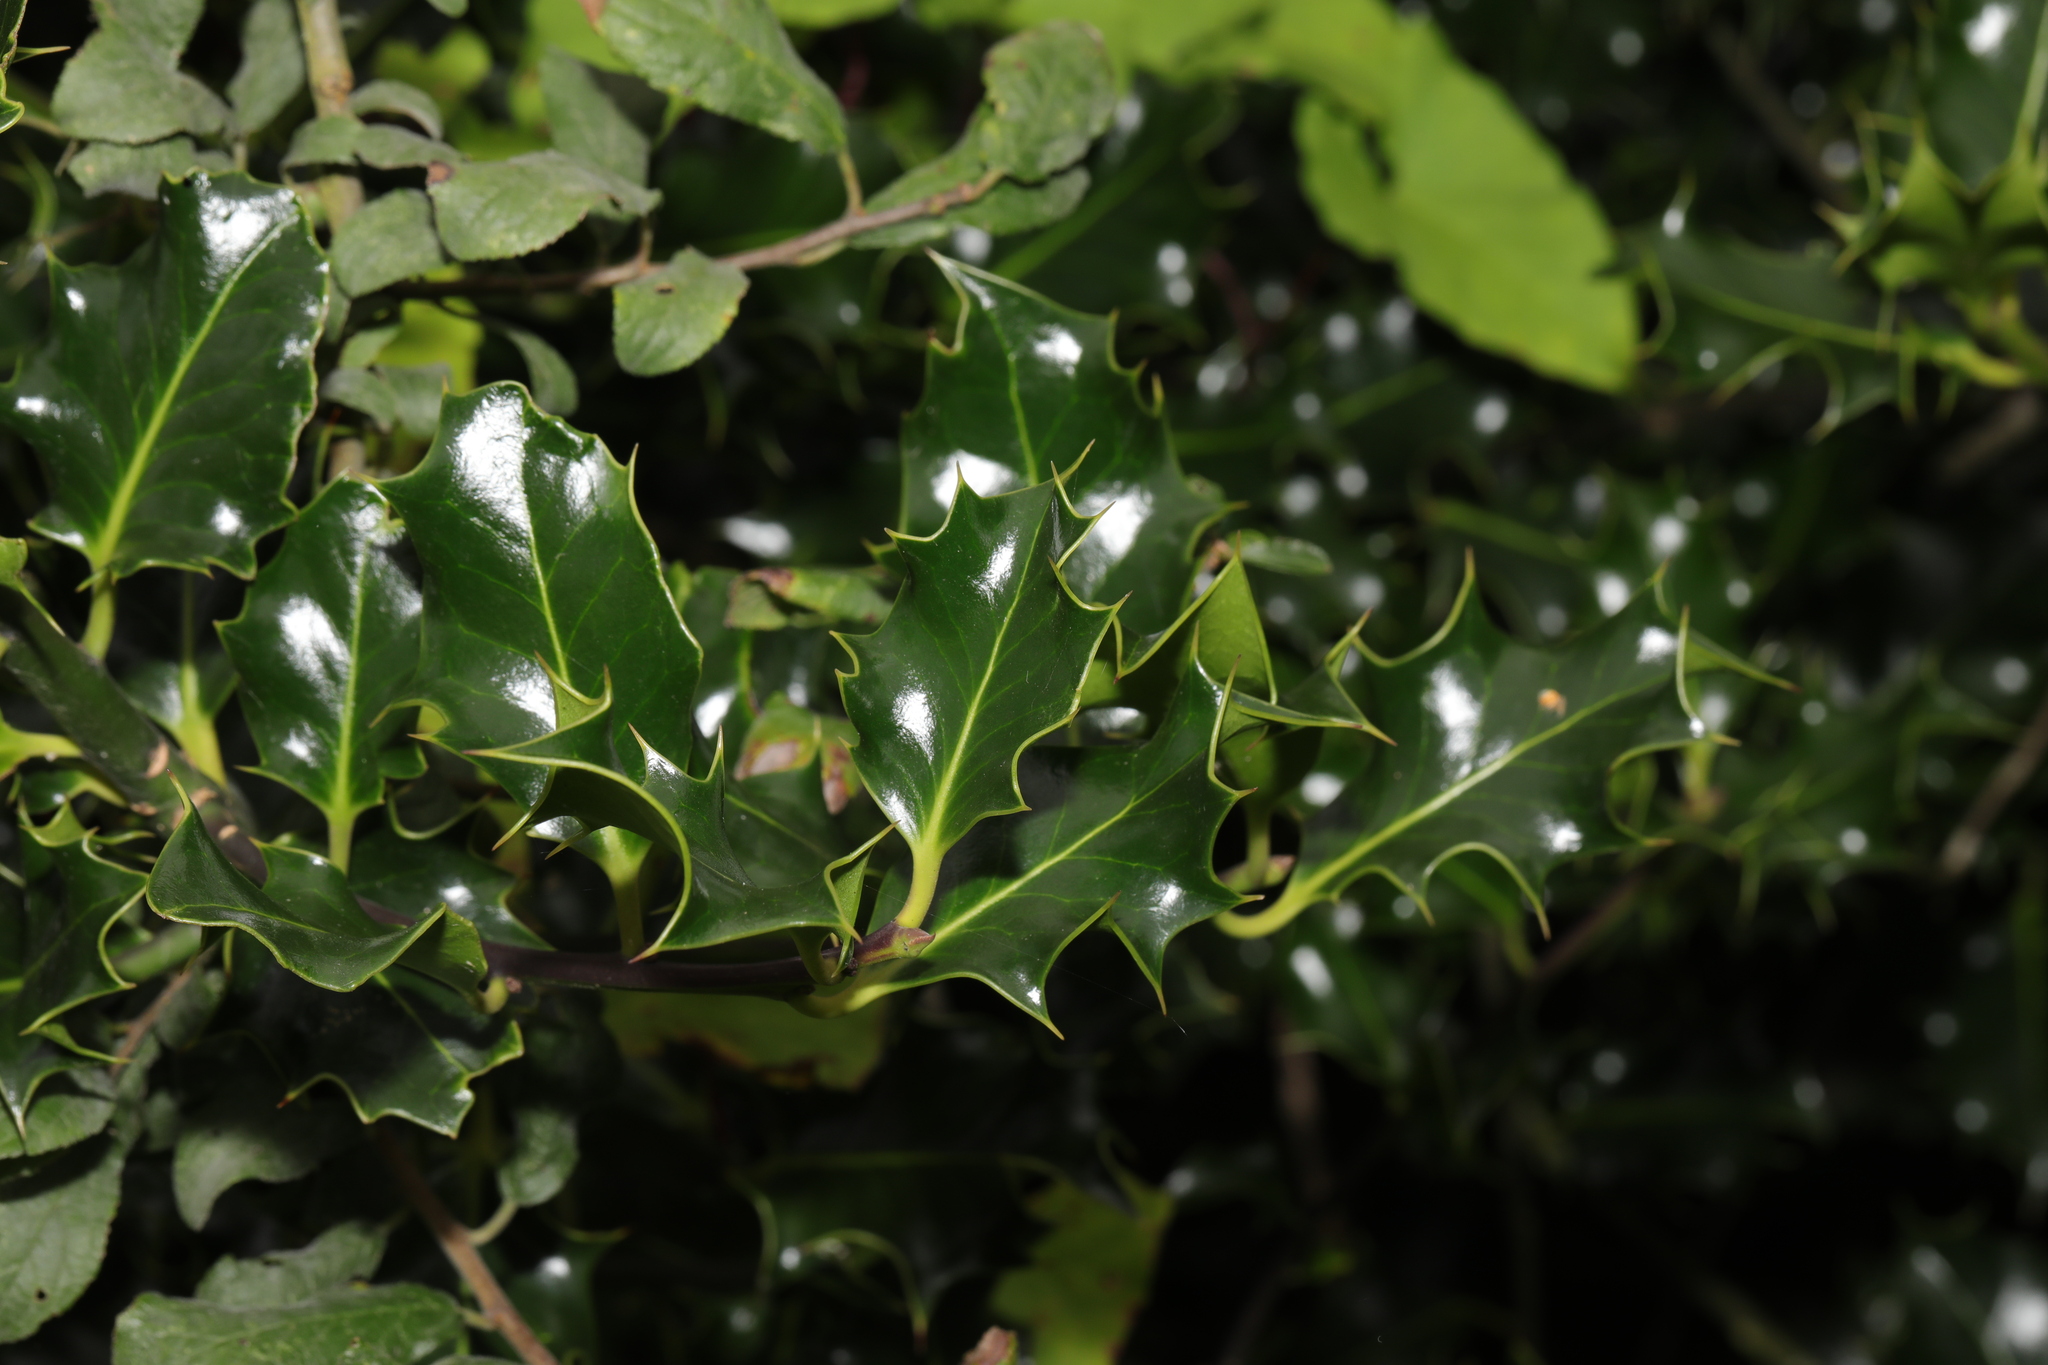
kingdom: Plantae
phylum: Tracheophyta
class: Magnoliopsida
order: Aquifoliales
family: Aquifoliaceae
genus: Ilex
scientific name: Ilex aquifolium
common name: English holly
